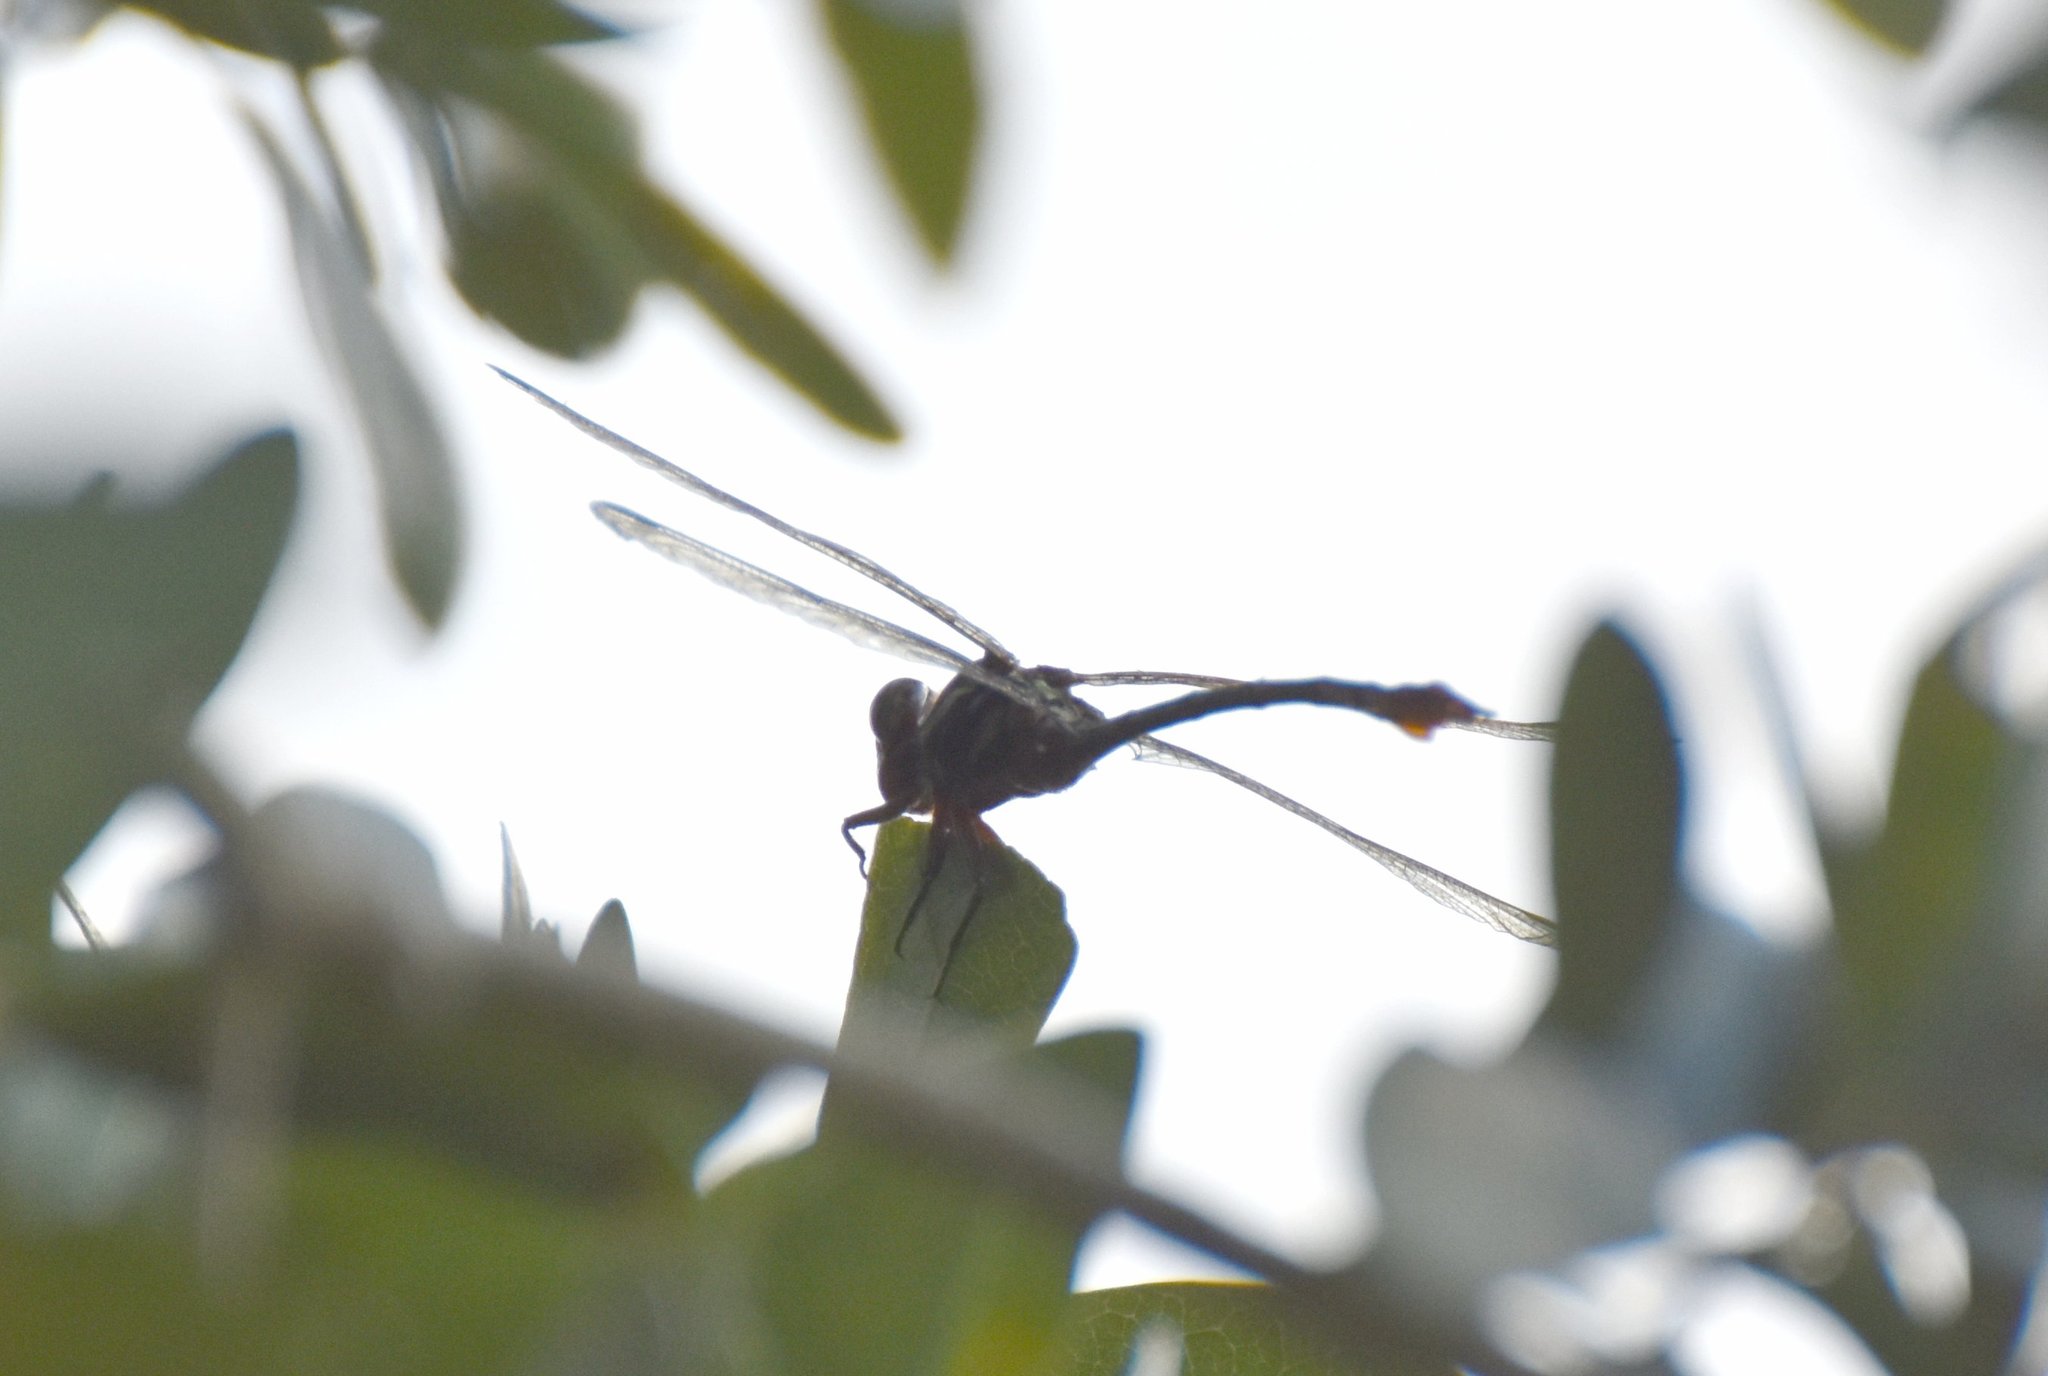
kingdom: Animalia
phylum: Arthropoda
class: Insecta
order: Odonata
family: Gomphidae
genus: Aphylla
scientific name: Aphylla williamsoni
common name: Two-striped forceptail
